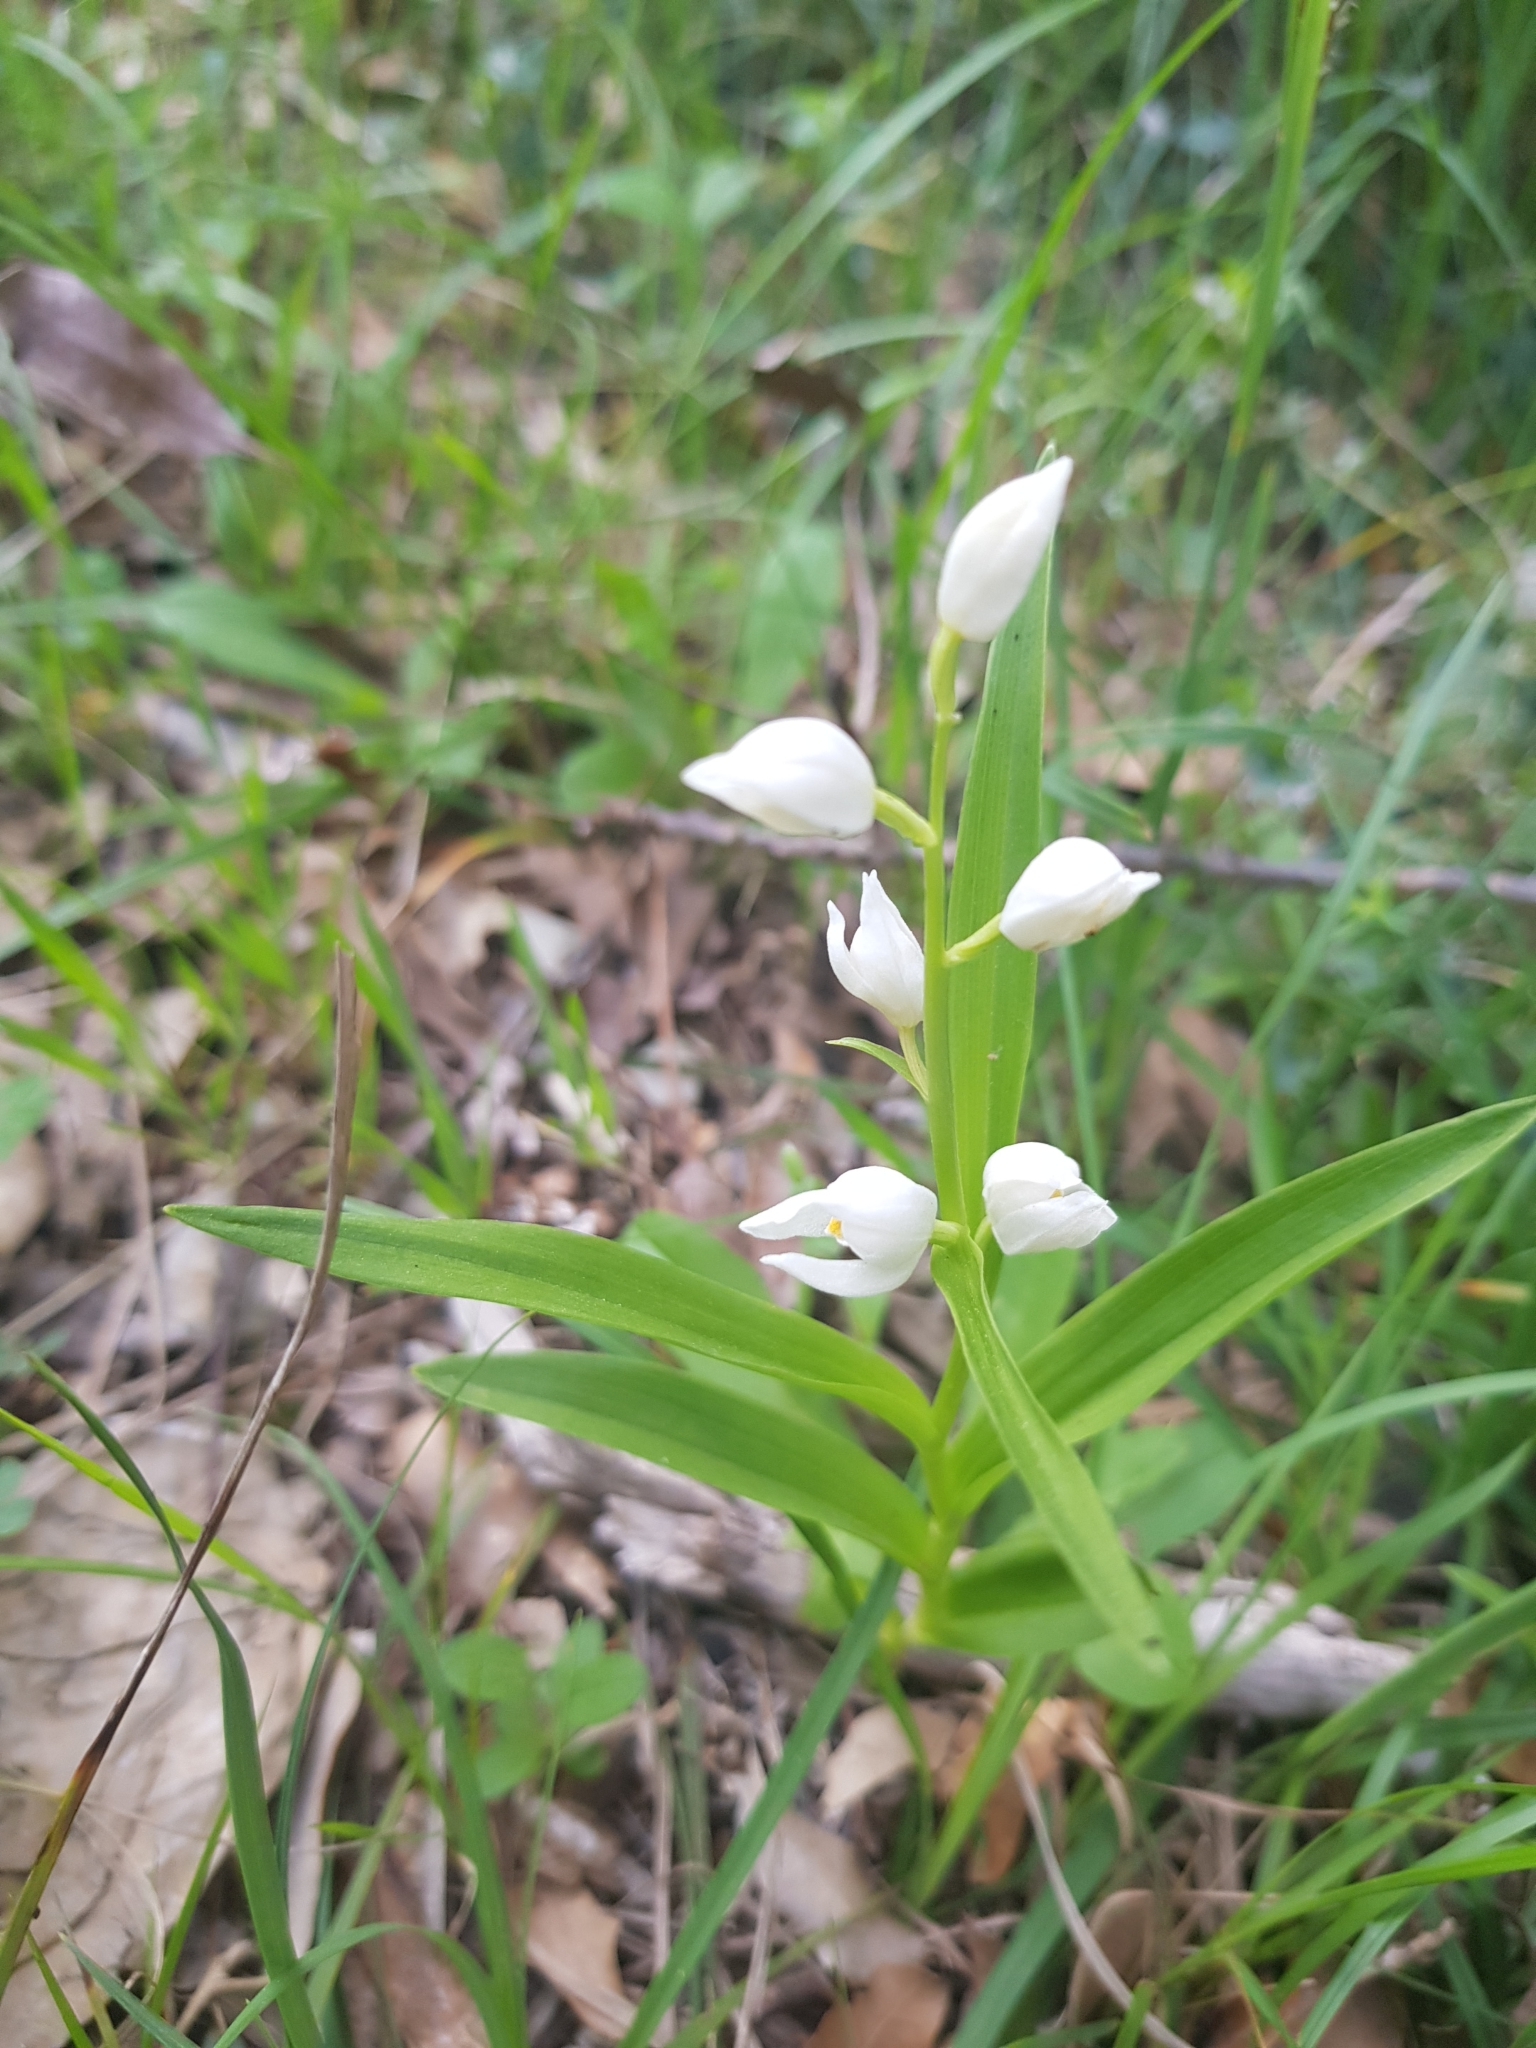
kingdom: Plantae
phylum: Tracheophyta
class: Liliopsida
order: Asparagales
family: Orchidaceae
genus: Cephalanthera
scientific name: Cephalanthera longifolia
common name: Narrow-leaved helleborine
